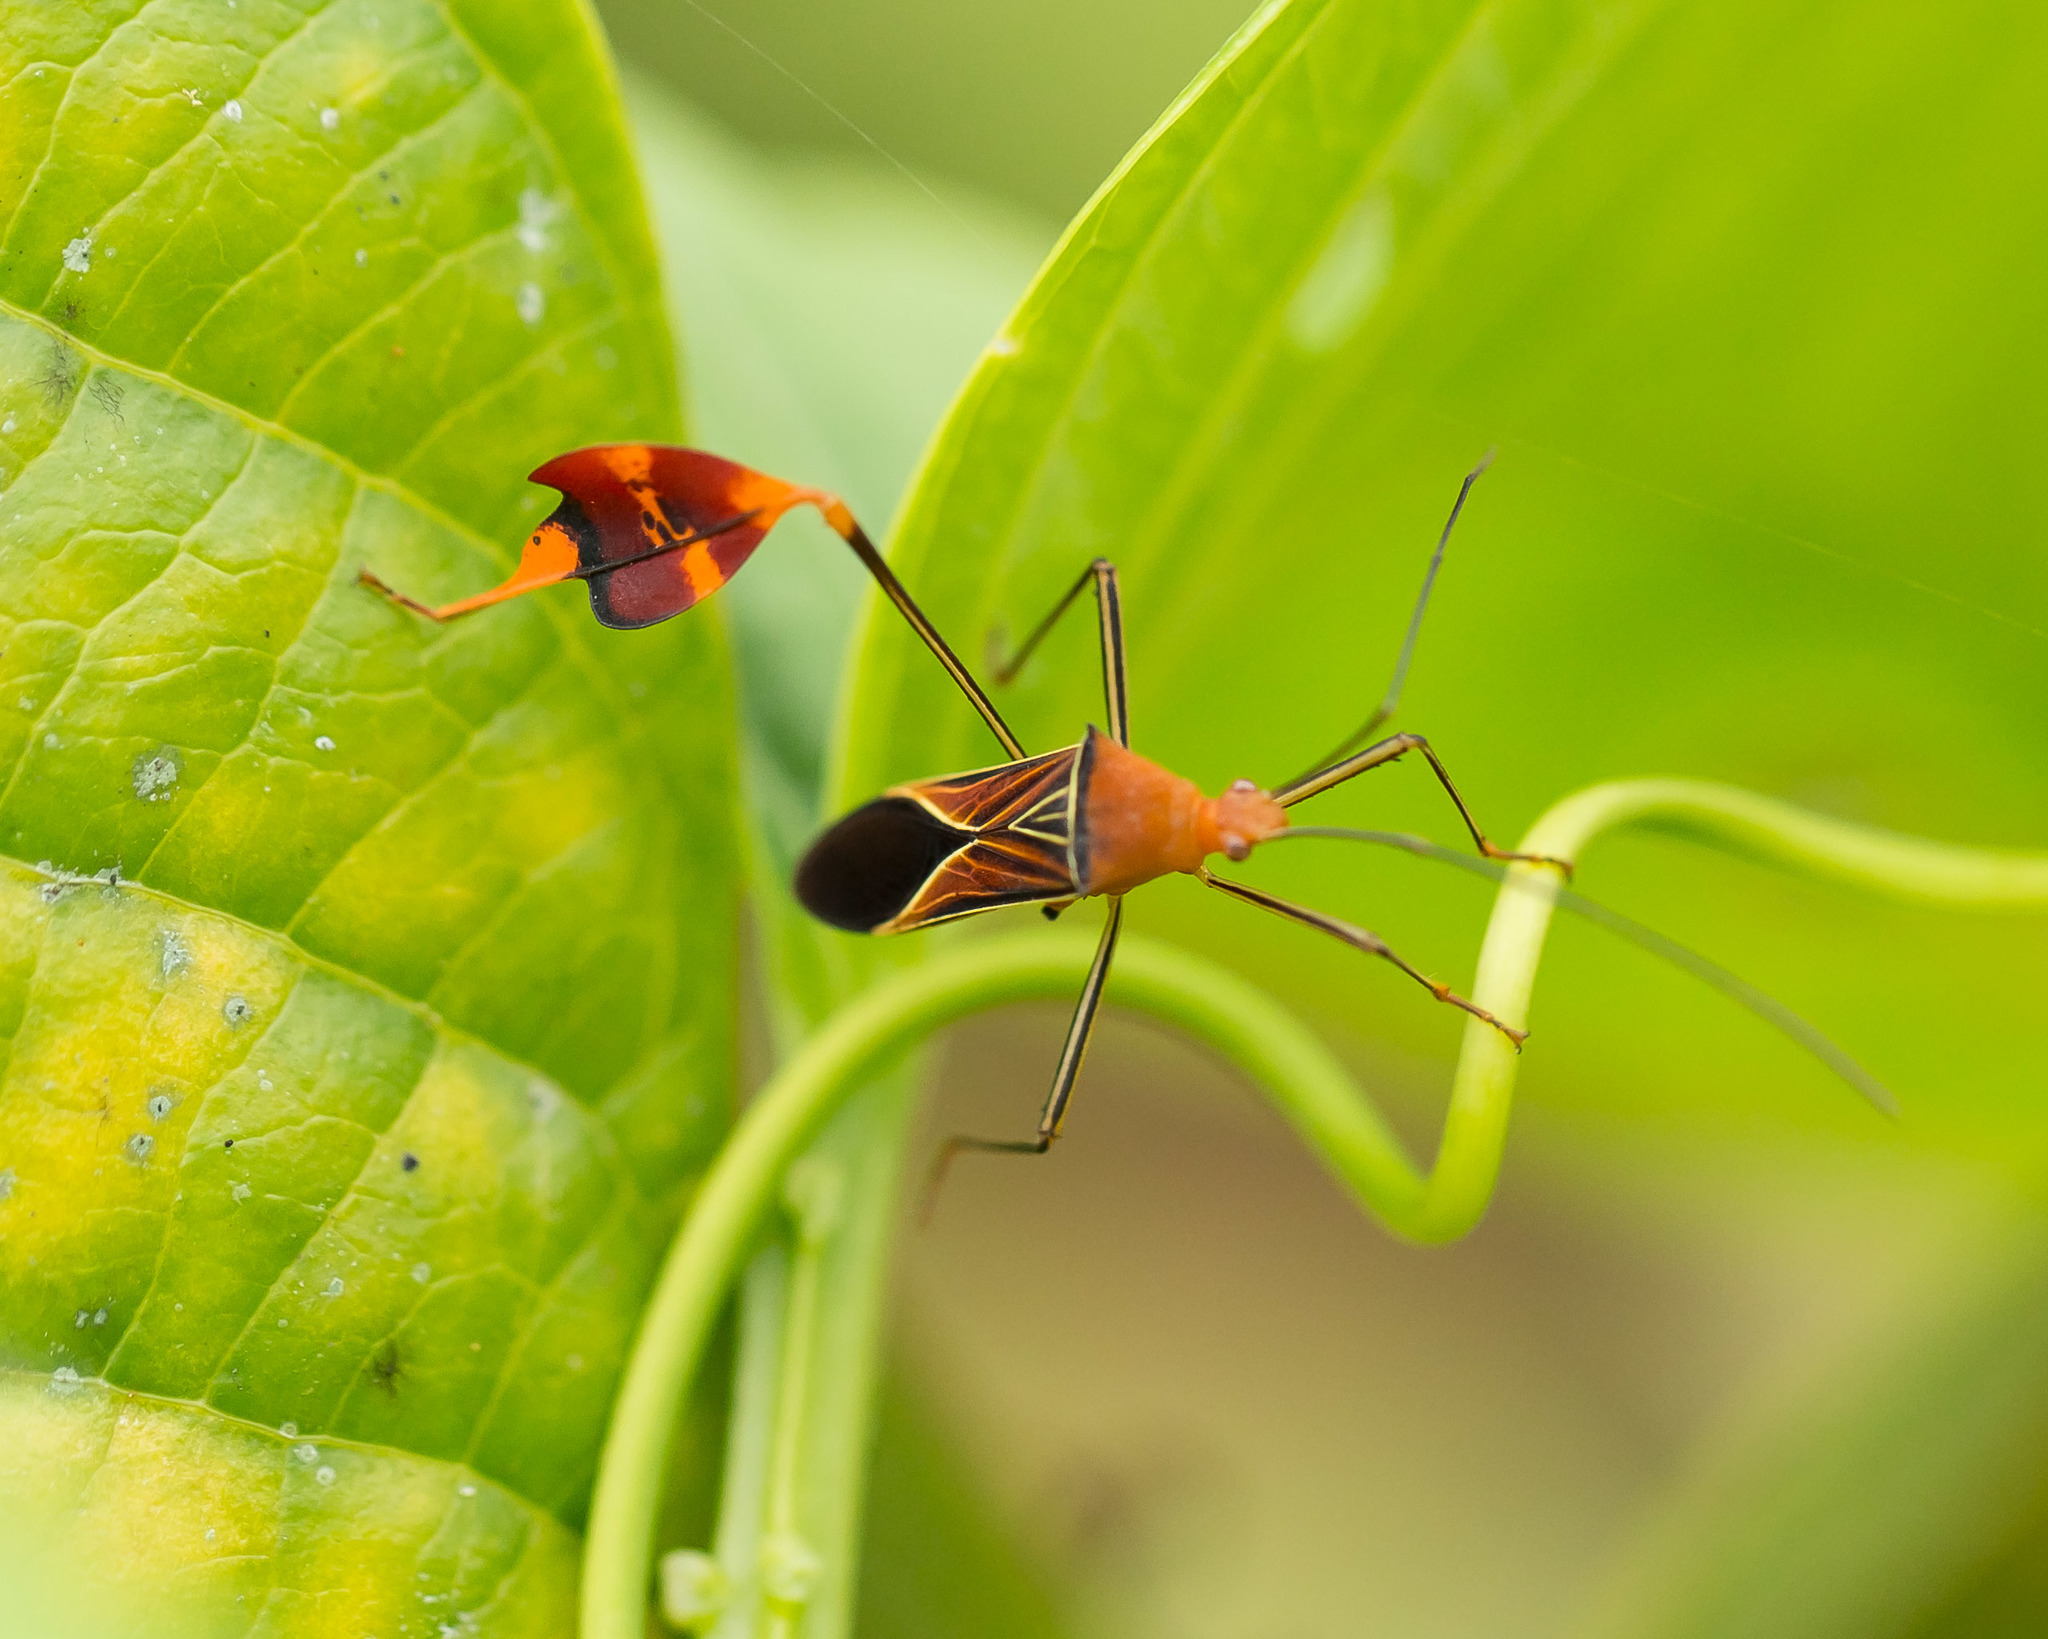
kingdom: Animalia
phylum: Arthropoda
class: Insecta
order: Hemiptera
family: Coreidae
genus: Bitta
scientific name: Bitta
